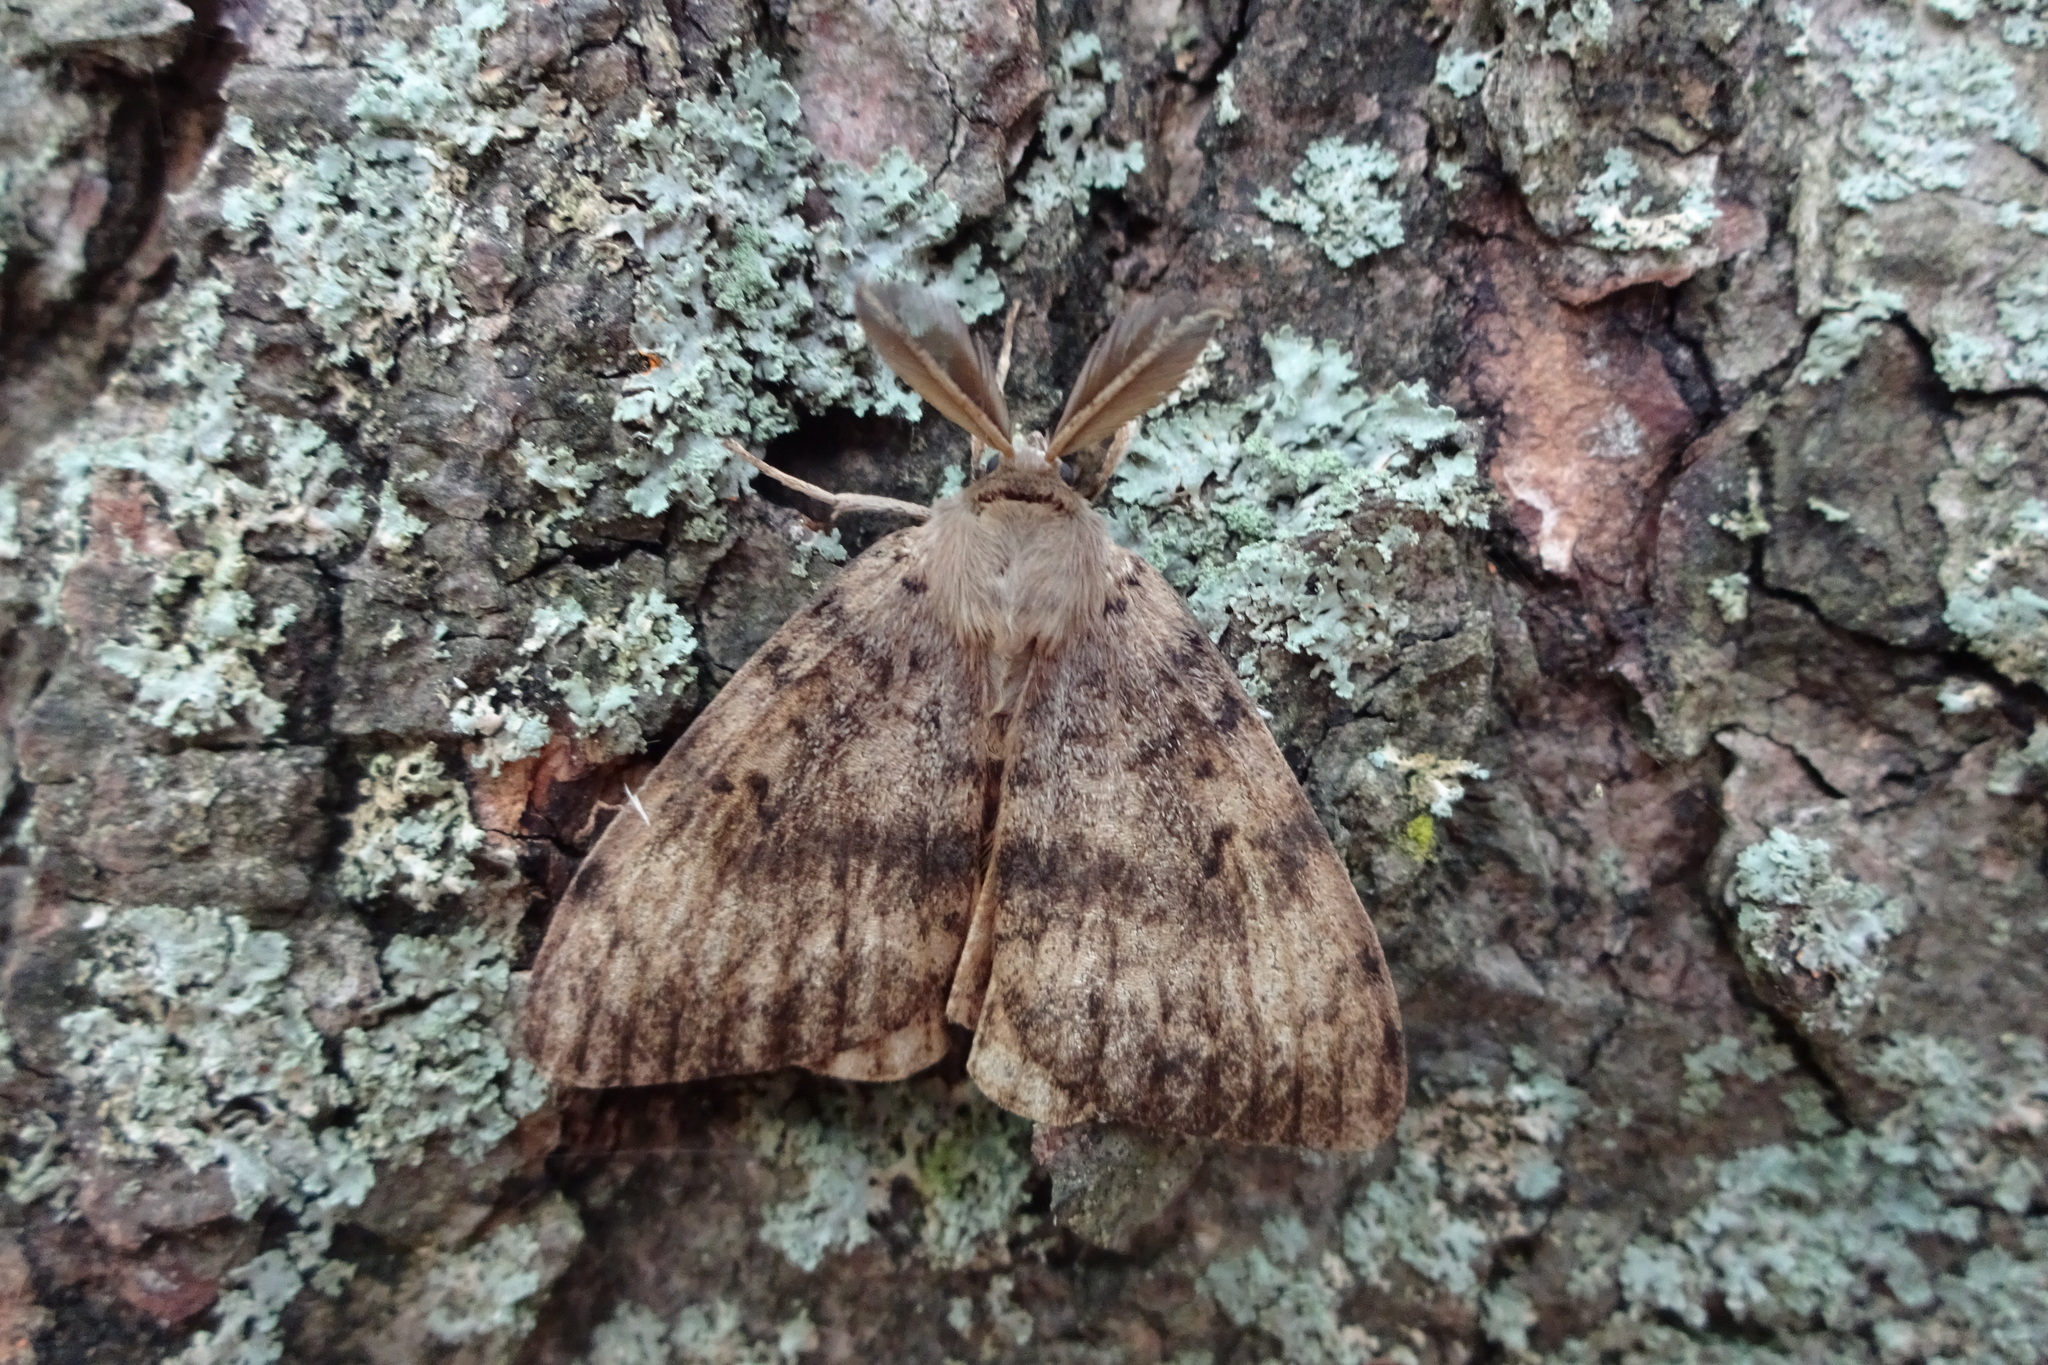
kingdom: Animalia
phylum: Arthropoda
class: Insecta
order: Lepidoptera
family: Erebidae
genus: Lymantria
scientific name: Lymantria dispar
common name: Gypsy moth
